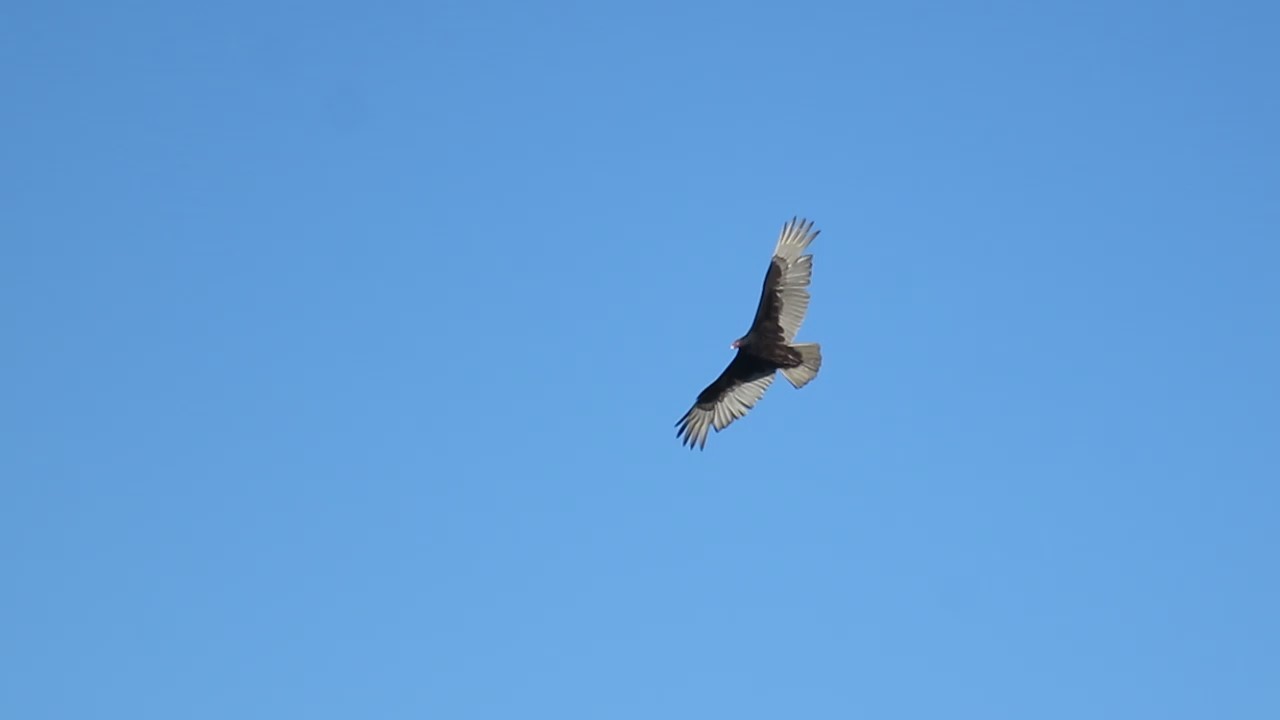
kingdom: Animalia
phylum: Chordata
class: Aves
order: Accipitriformes
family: Cathartidae
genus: Cathartes
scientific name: Cathartes aura
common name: Turkey vulture
